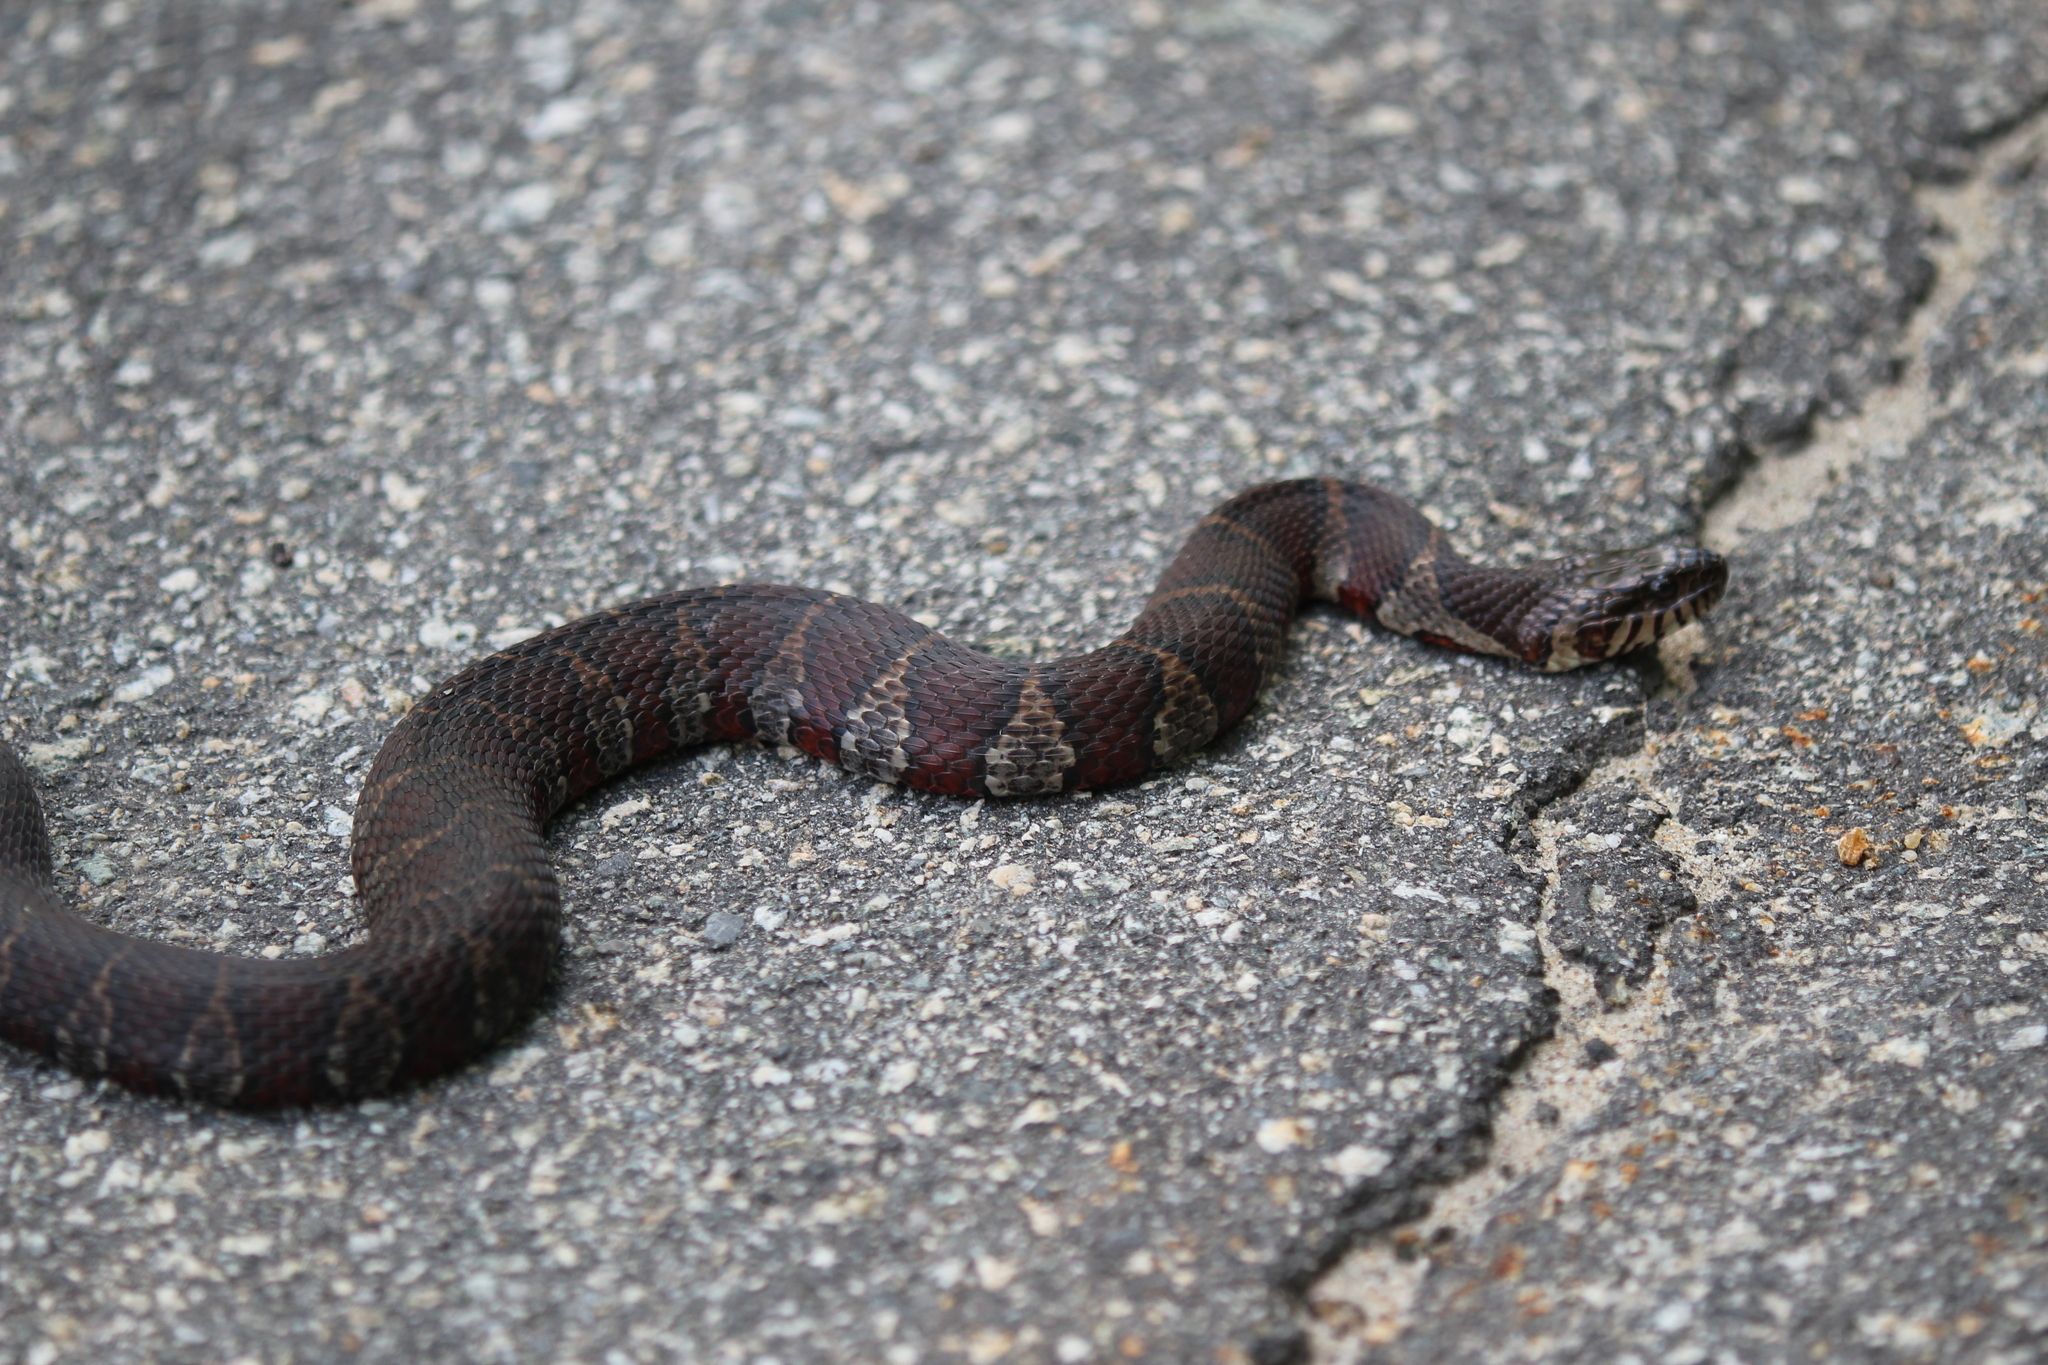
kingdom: Animalia
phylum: Chordata
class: Squamata
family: Colubridae
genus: Nerodia
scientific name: Nerodia sipedon
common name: Northern water snake
